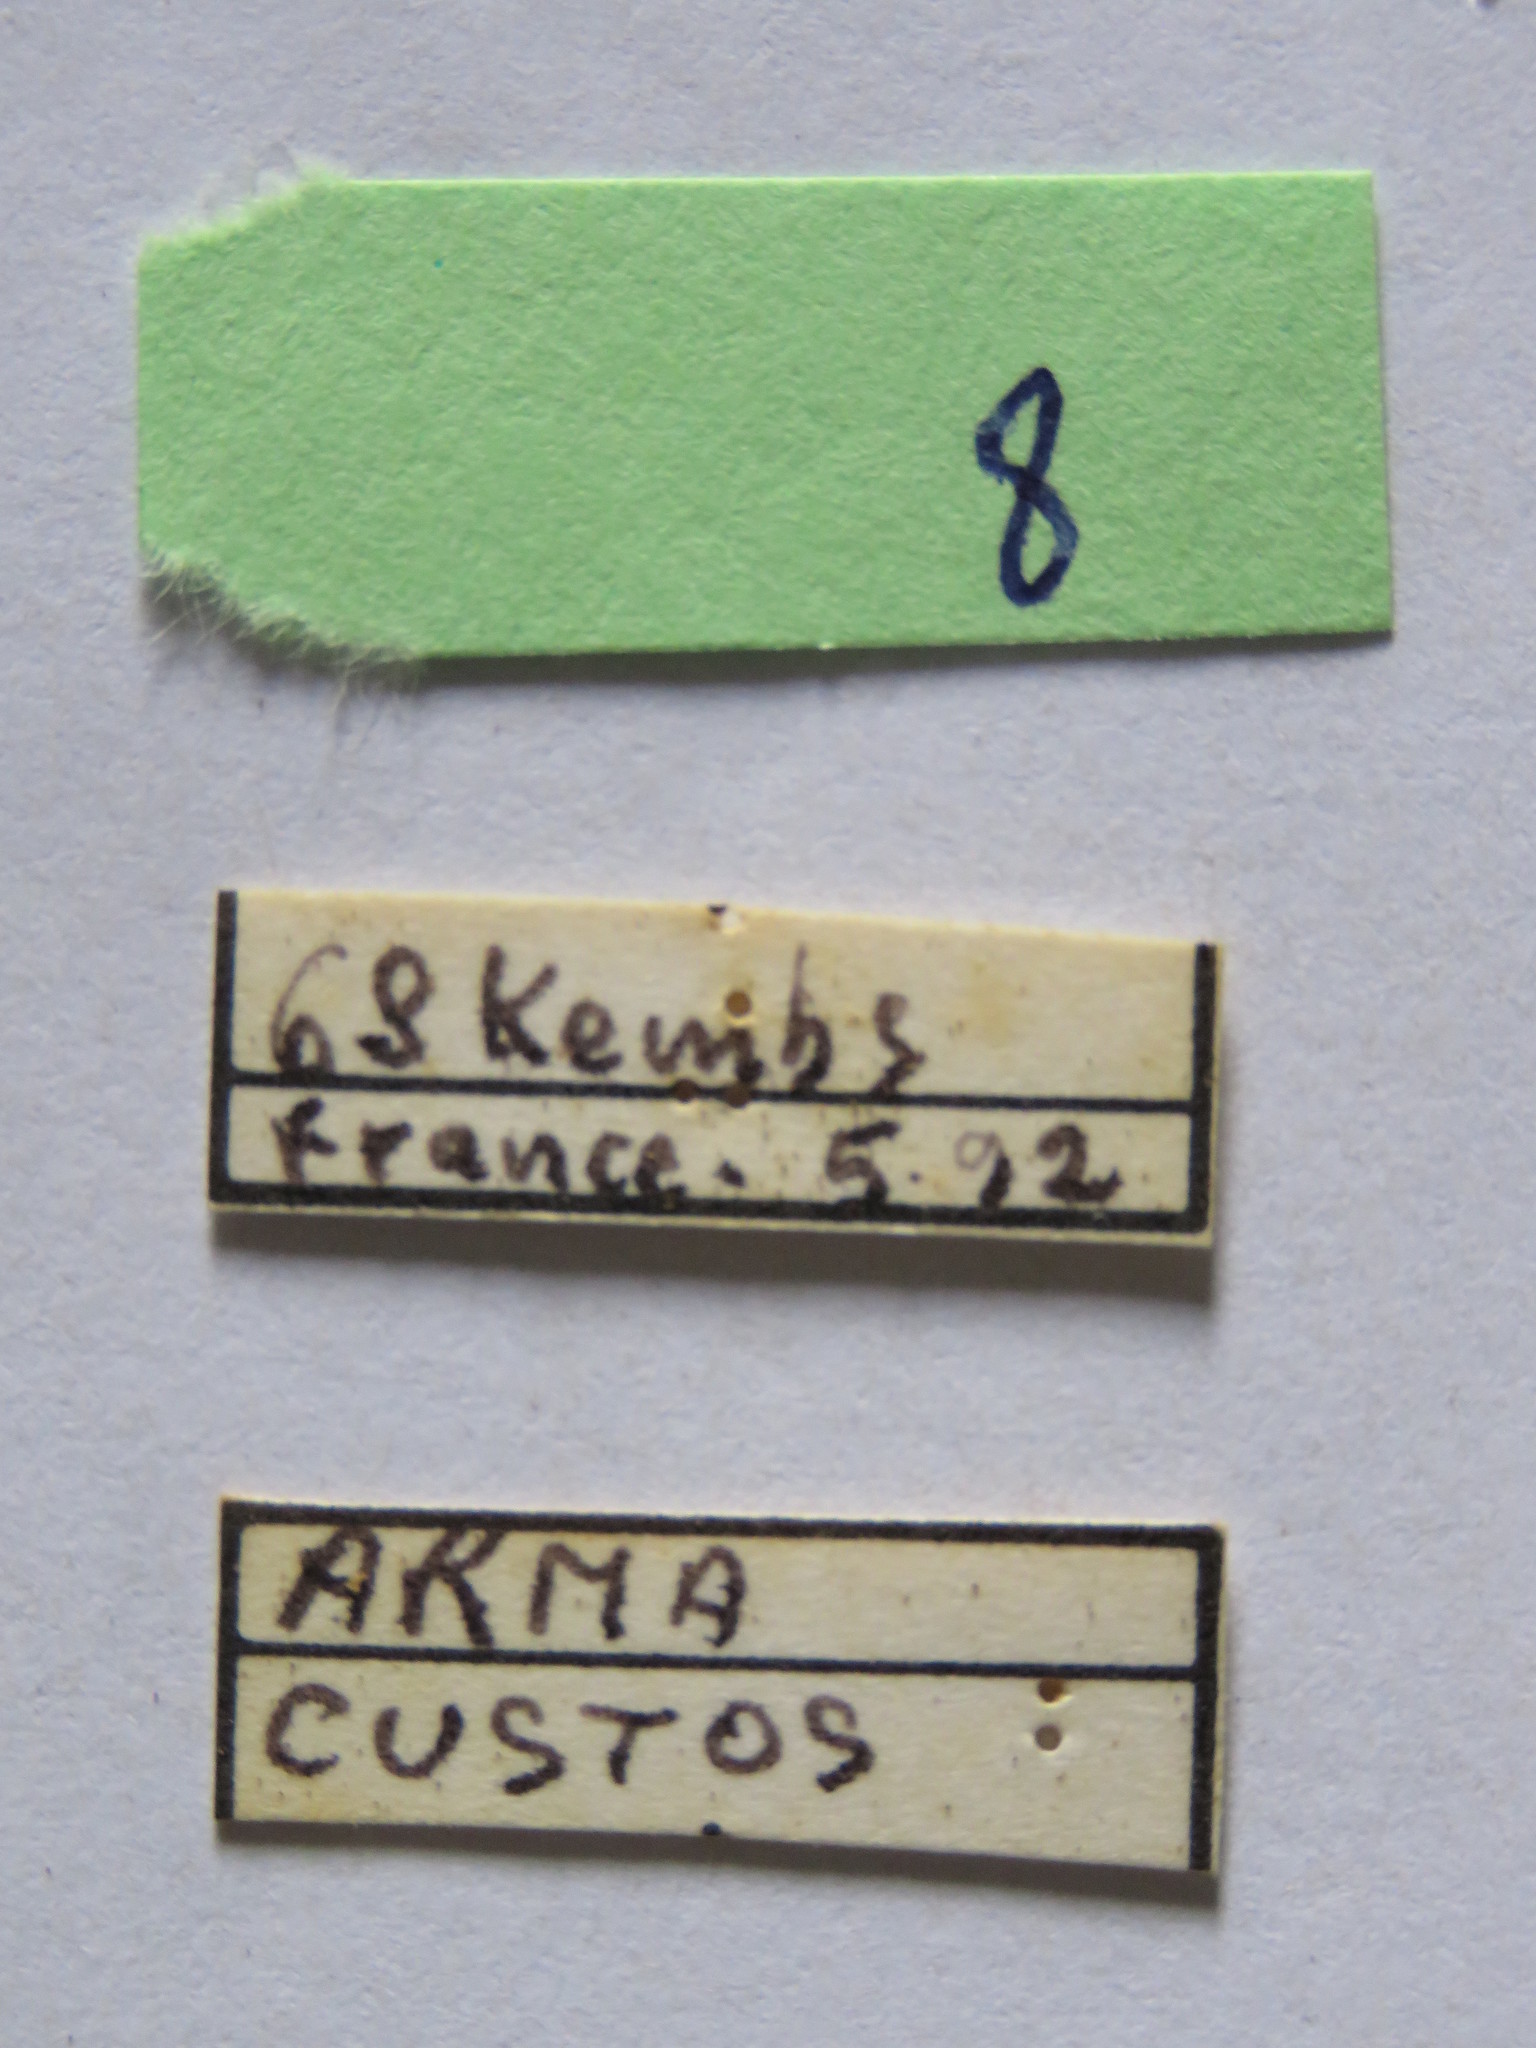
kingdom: Animalia
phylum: Arthropoda
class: Insecta
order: Hemiptera
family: Coreidae
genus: Coreus
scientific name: Coreus marginatus
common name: Dock bug
